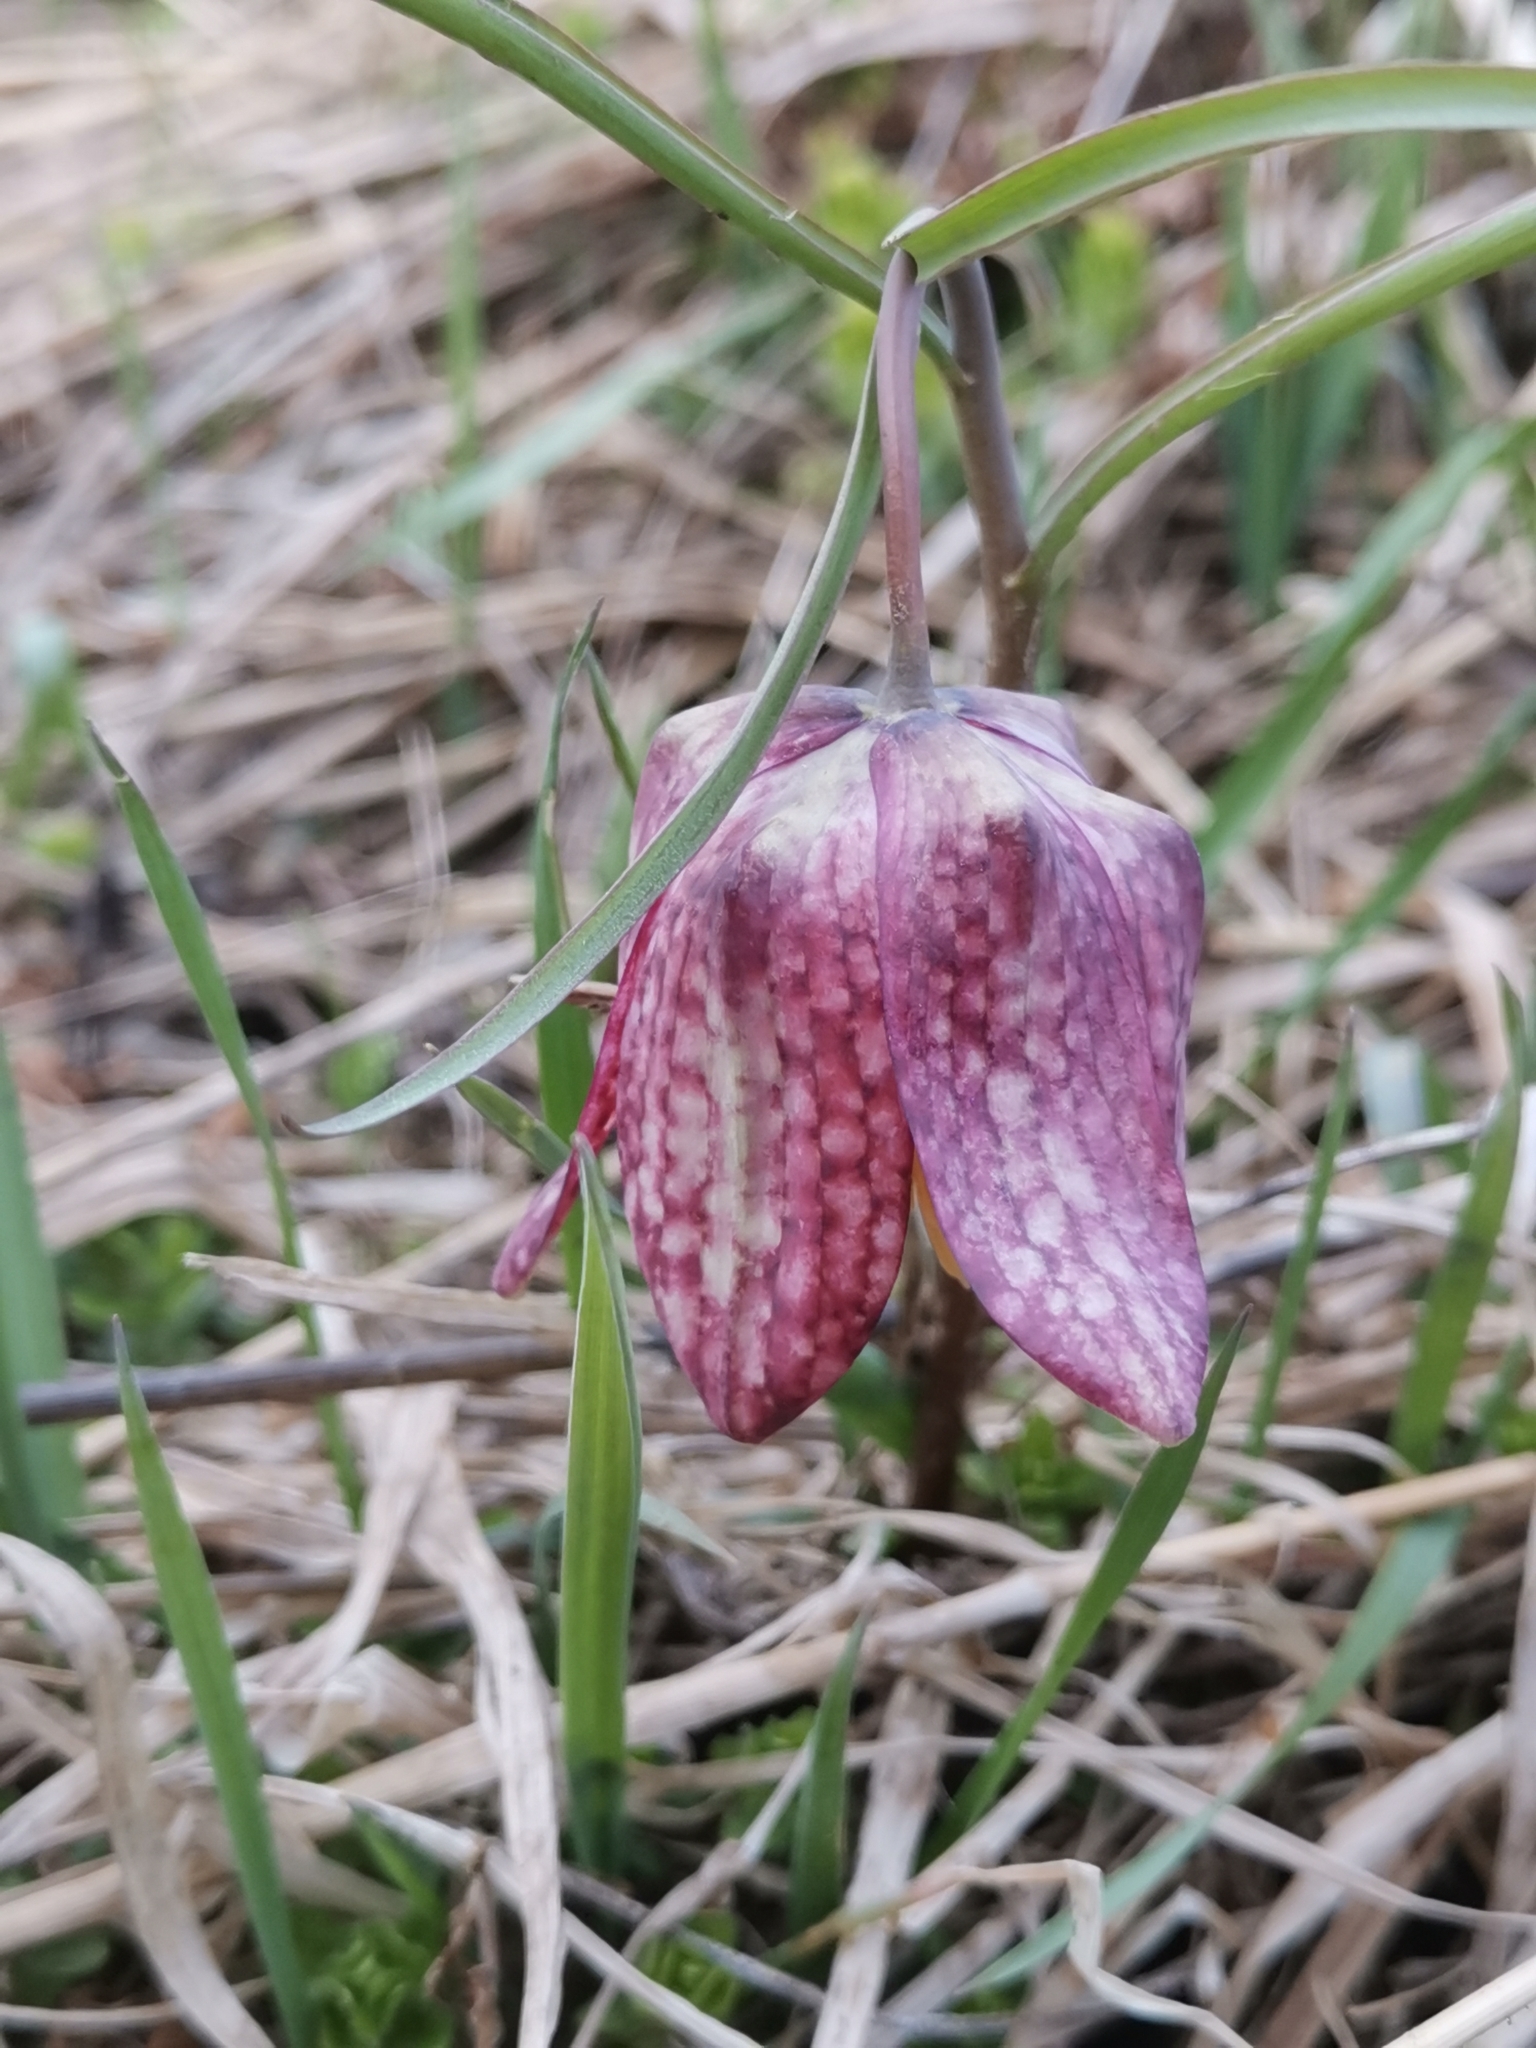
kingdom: Plantae
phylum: Tracheophyta
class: Liliopsida
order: Liliales
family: Liliaceae
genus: Fritillaria
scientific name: Fritillaria meleagris
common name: Fritillary
